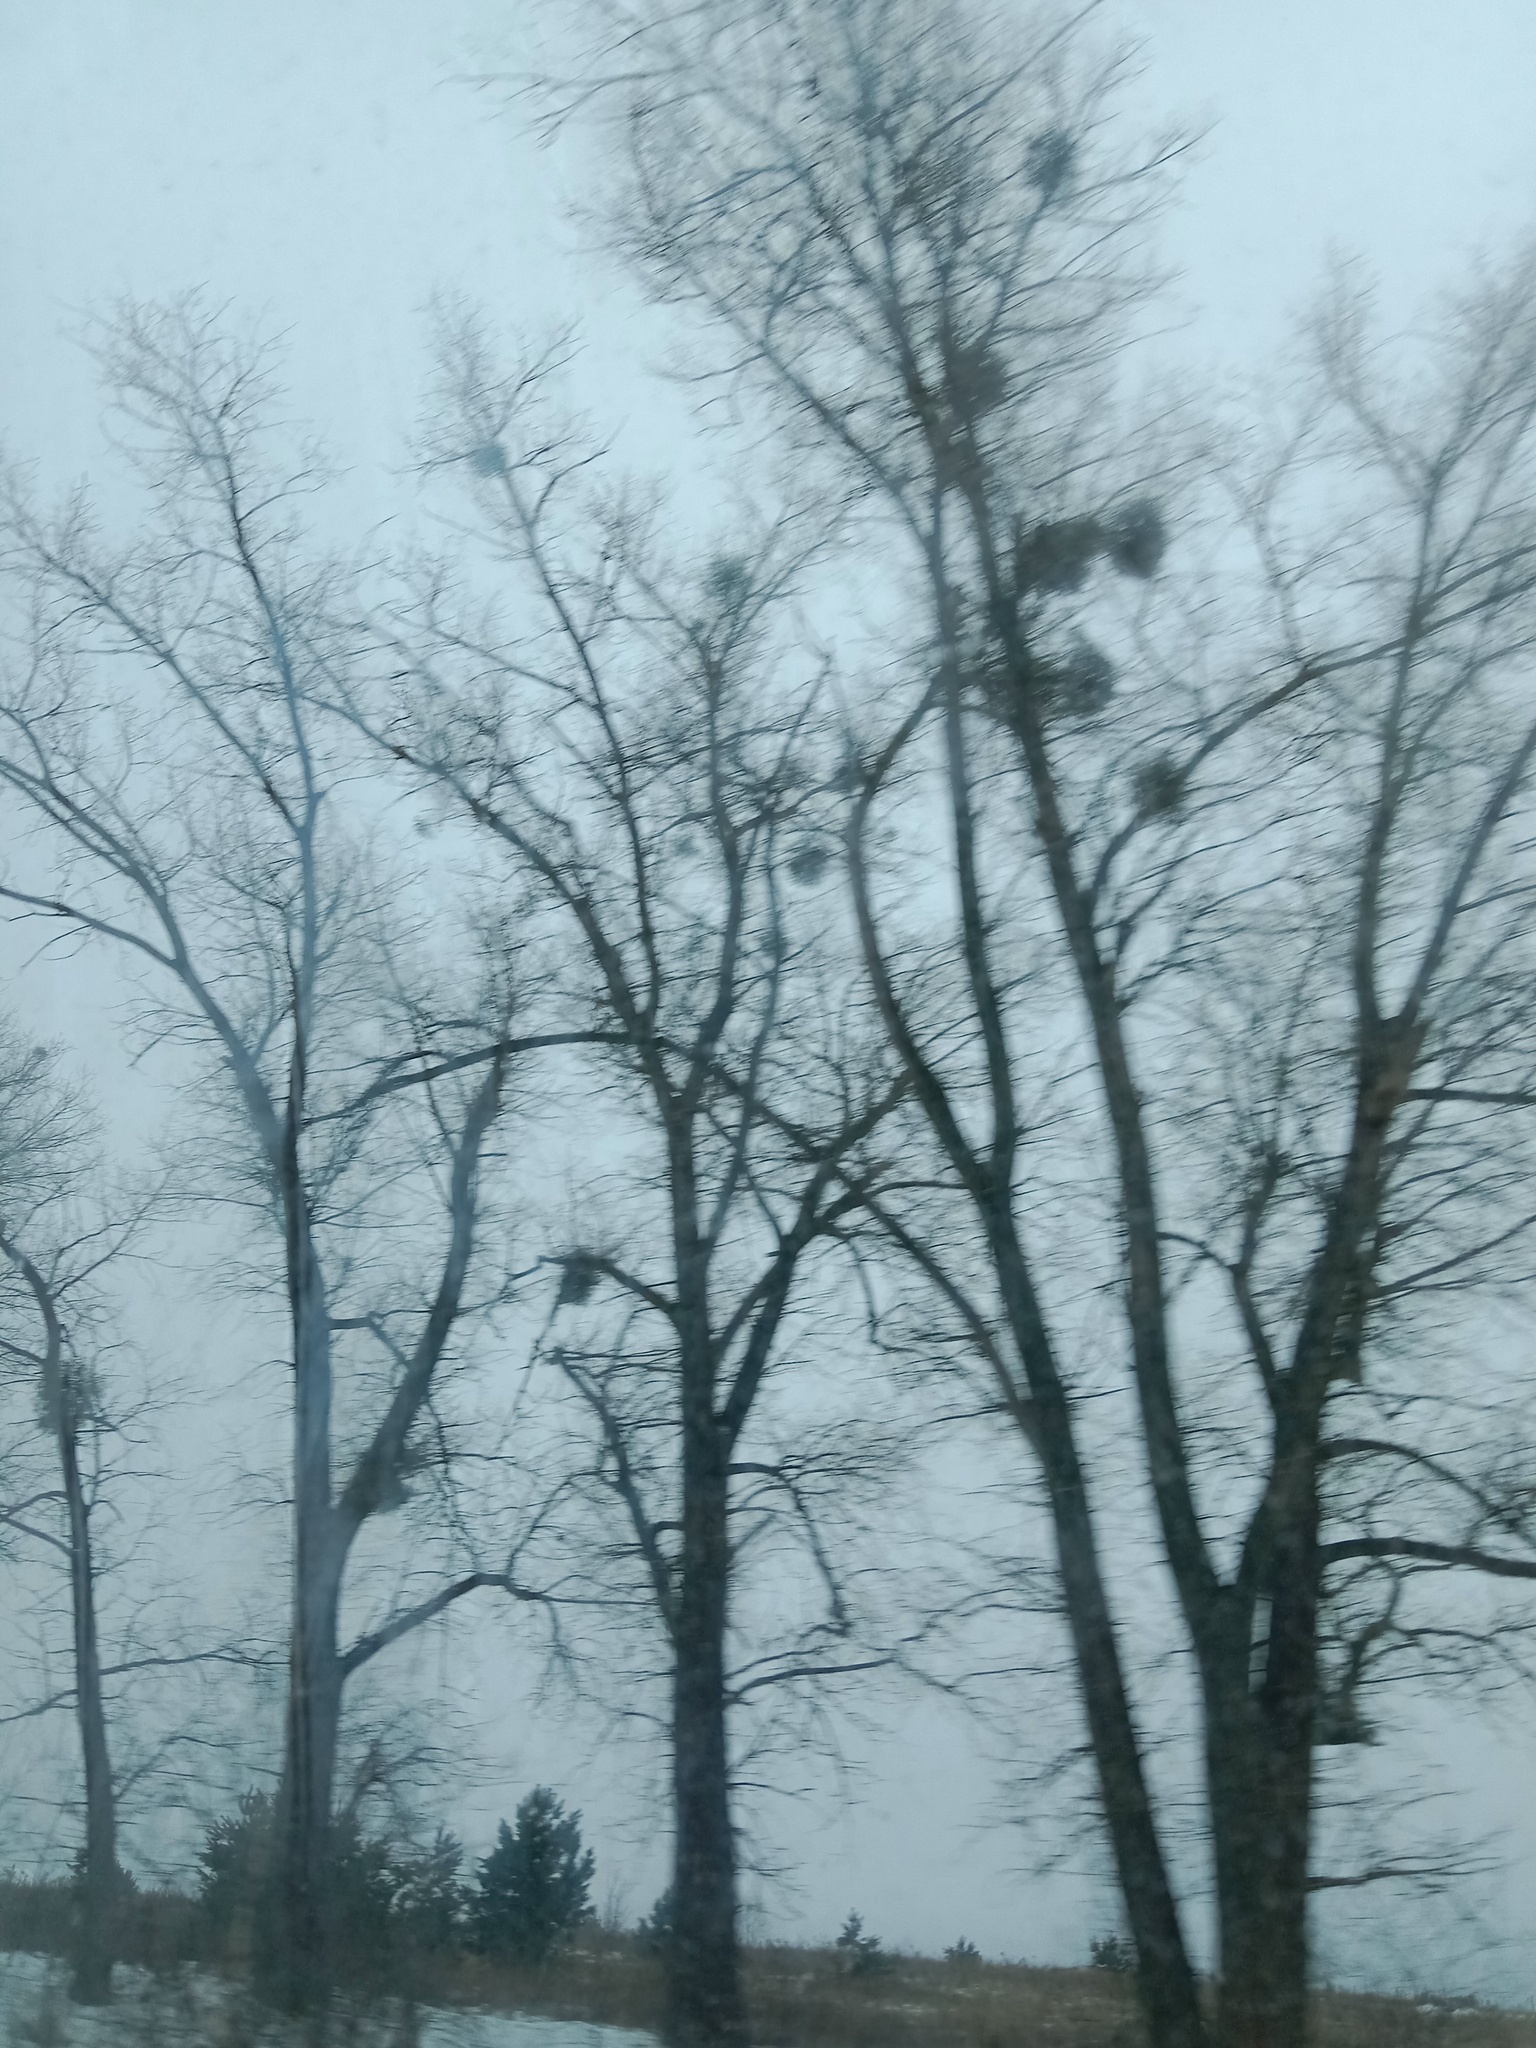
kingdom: Plantae
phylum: Tracheophyta
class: Magnoliopsida
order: Santalales
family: Viscaceae
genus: Viscum
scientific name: Viscum album
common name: Mistletoe
